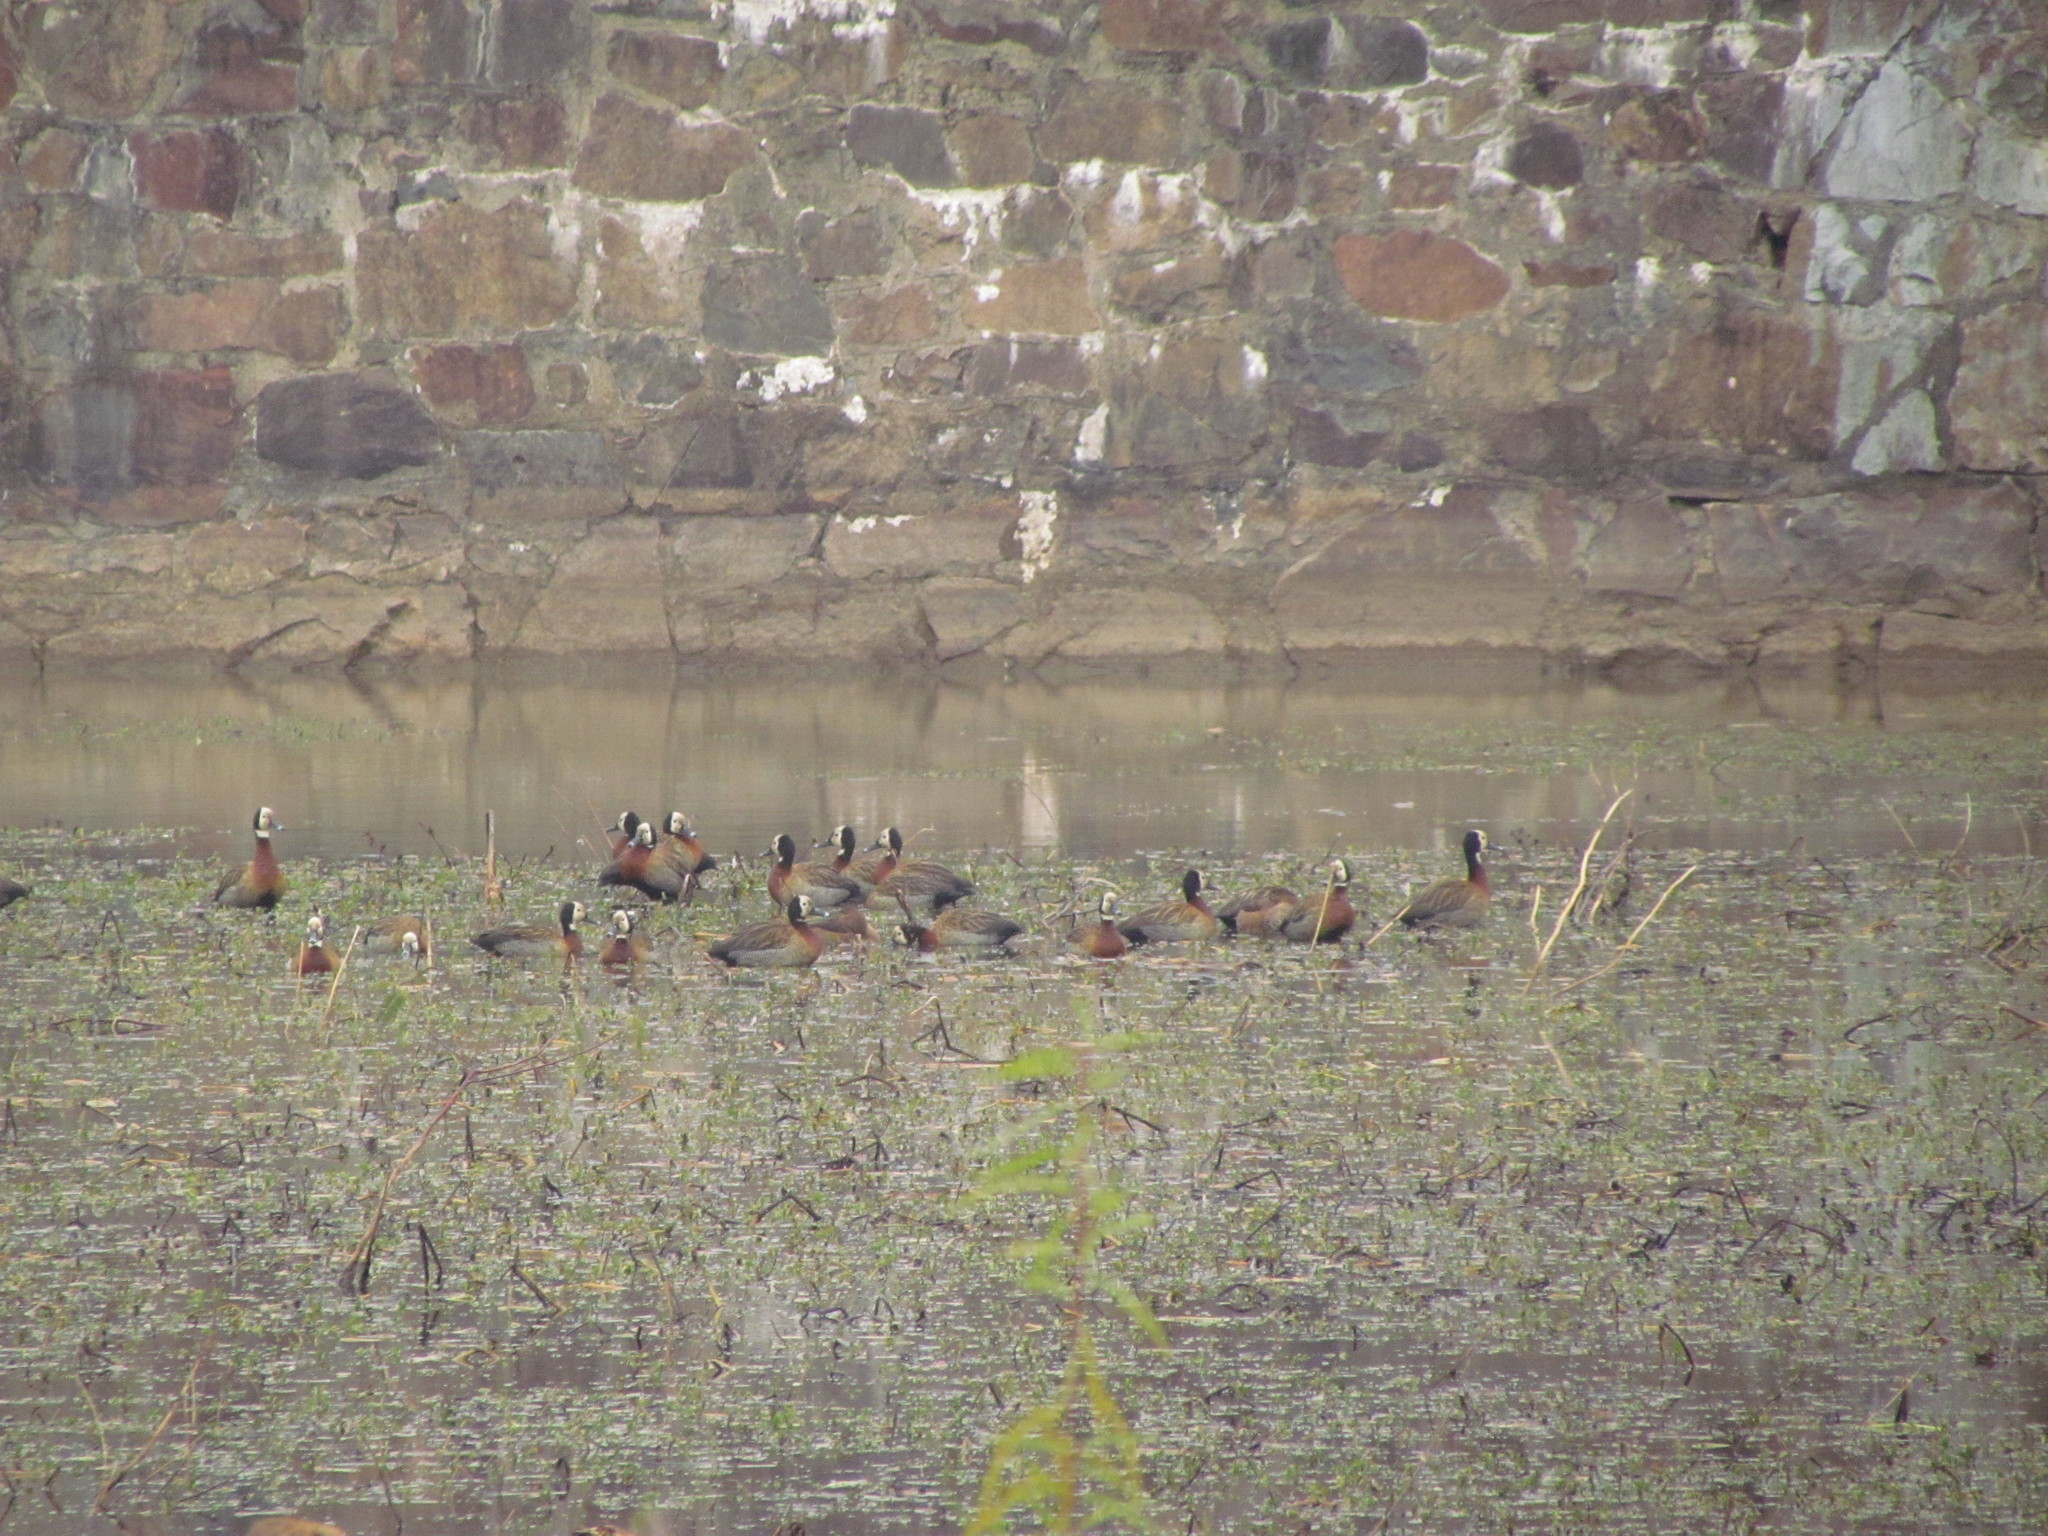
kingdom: Animalia
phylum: Chordata
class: Aves
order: Anseriformes
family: Anatidae
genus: Dendrocygna
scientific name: Dendrocygna viduata
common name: White-faced whistling duck
